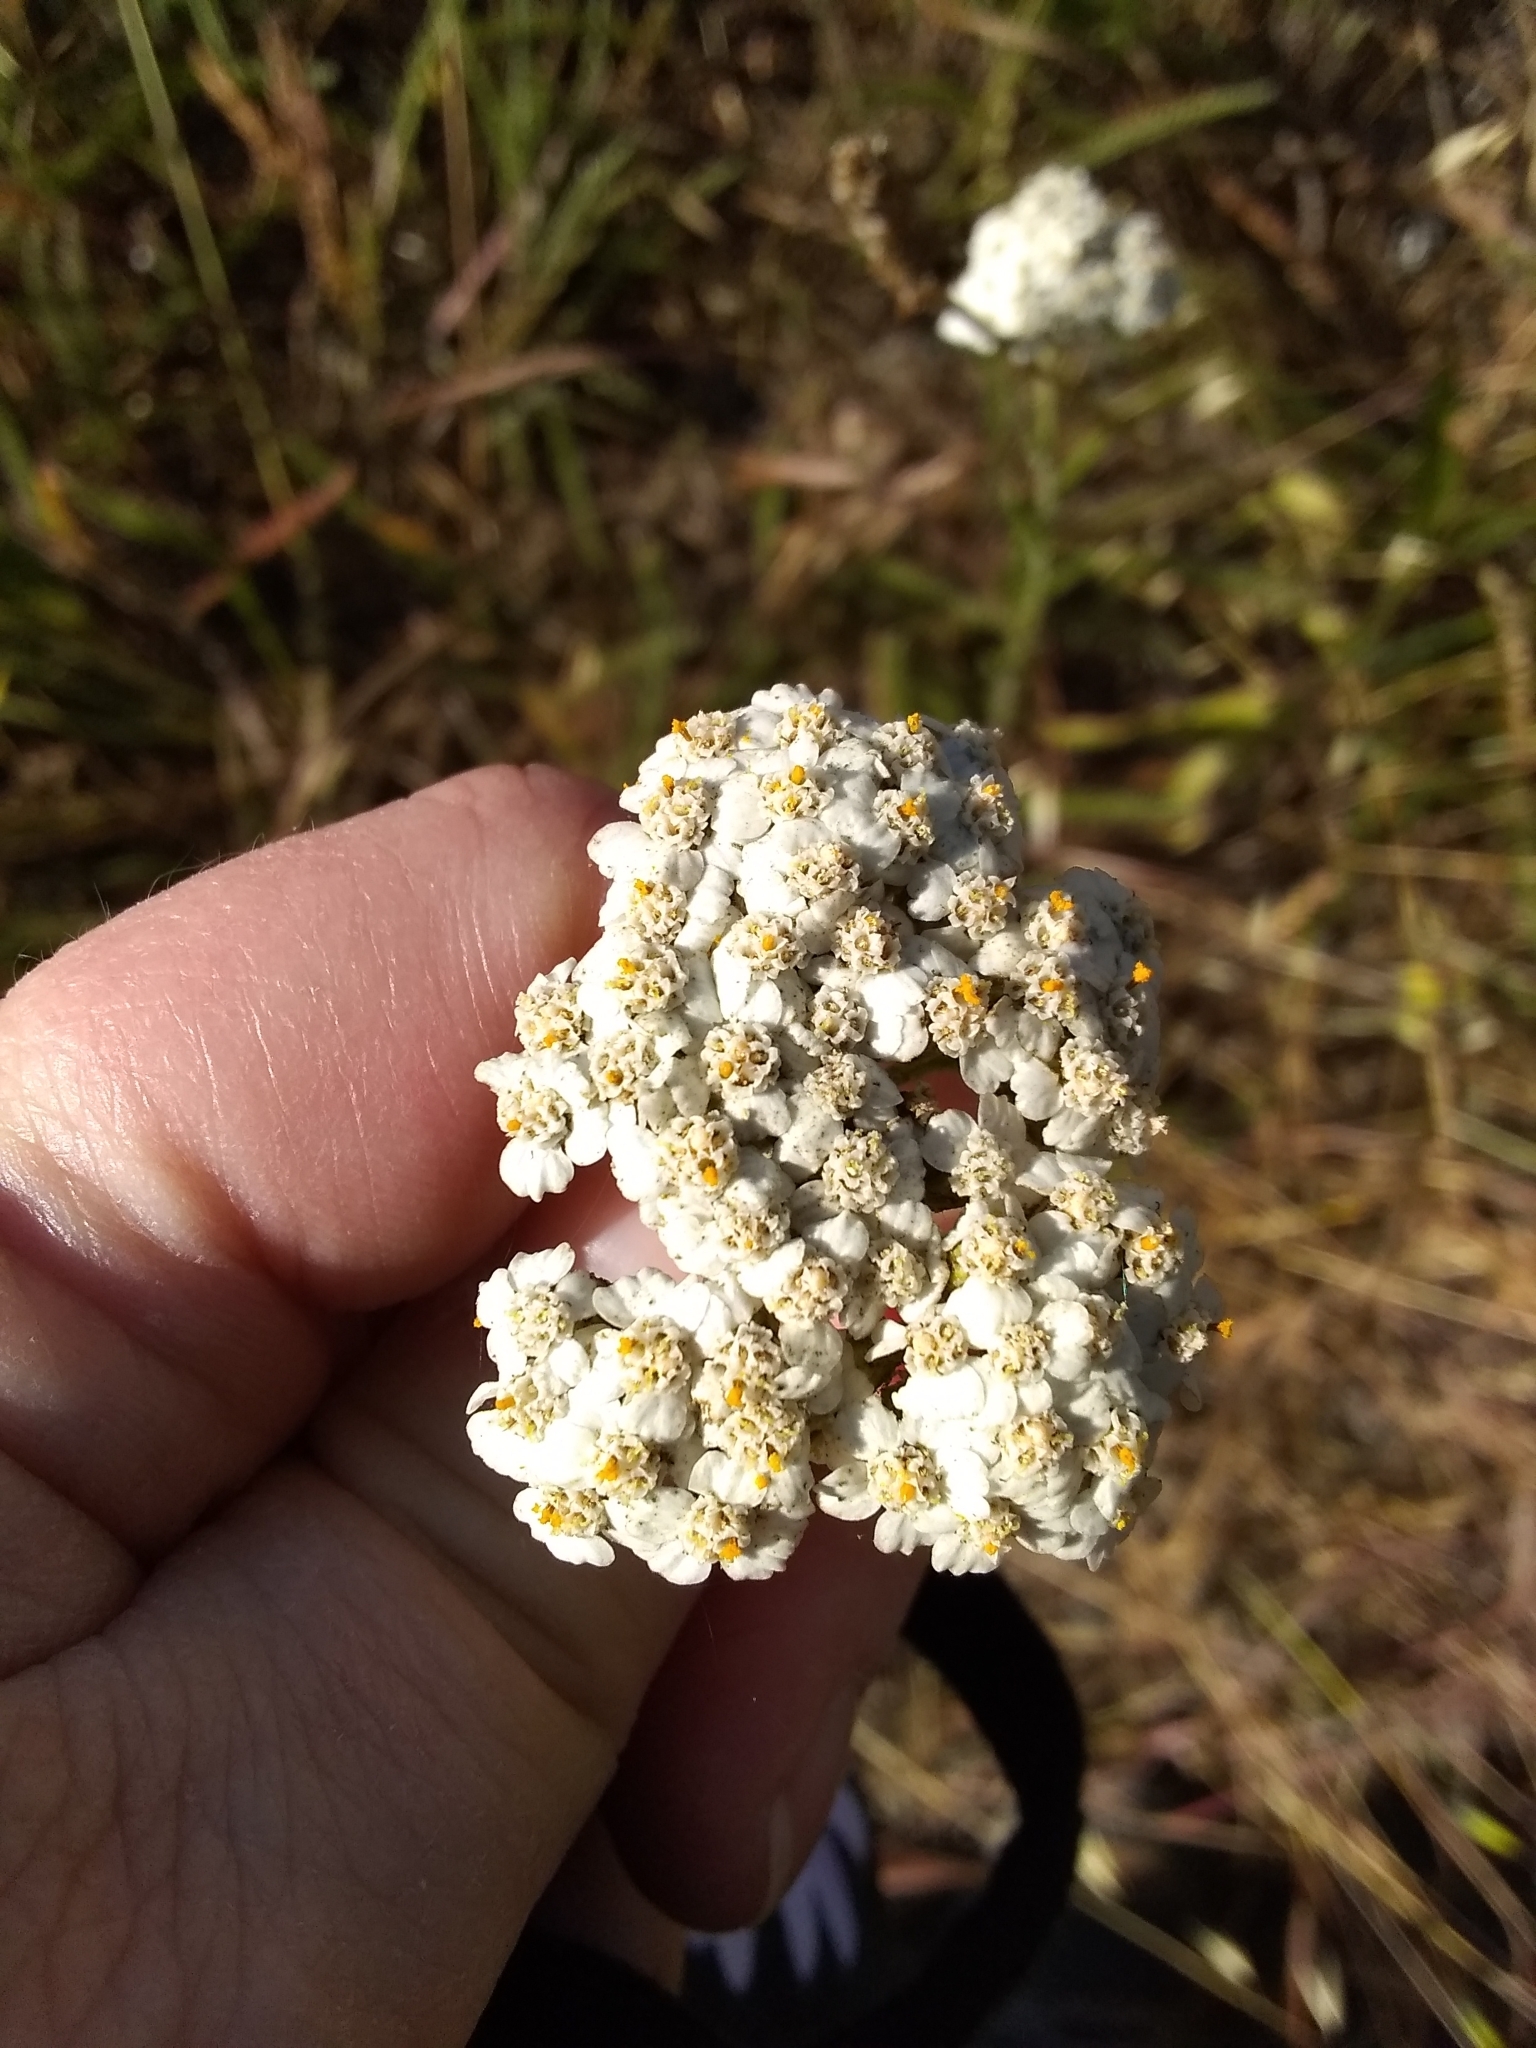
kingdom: Plantae
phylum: Tracheophyta
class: Magnoliopsida
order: Asterales
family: Asteraceae
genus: Achillea
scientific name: Achillea millefolium
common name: Yarrow
